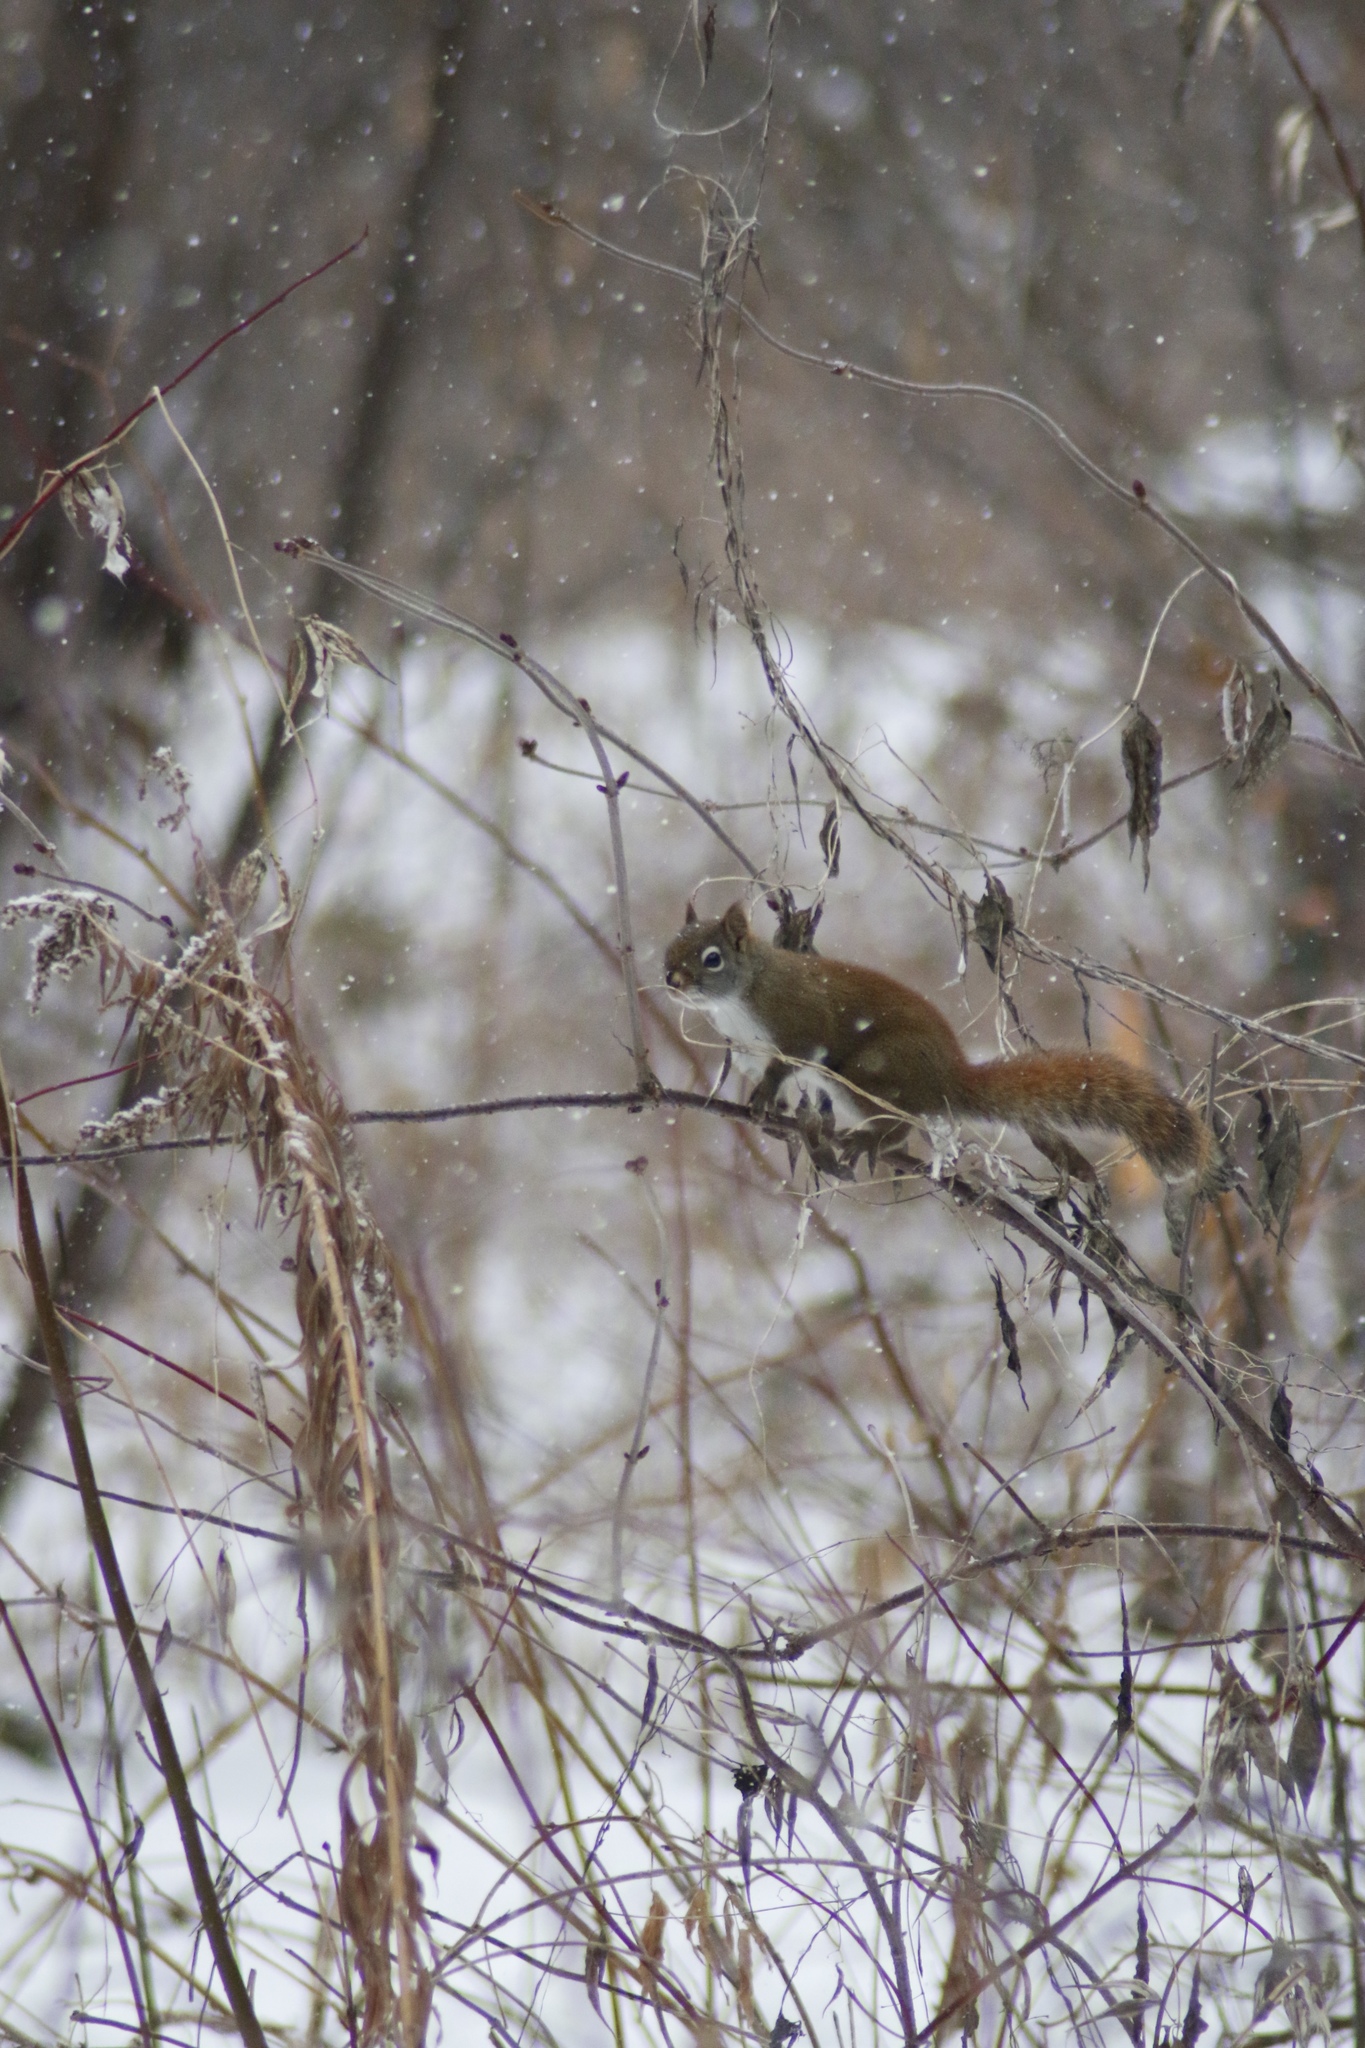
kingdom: Animalia
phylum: Chordata
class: Mammalia
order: Rodentia
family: Sciuridae
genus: Tamiasciurus
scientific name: Tamiasciurus hudsonicus
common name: Red squirrel
